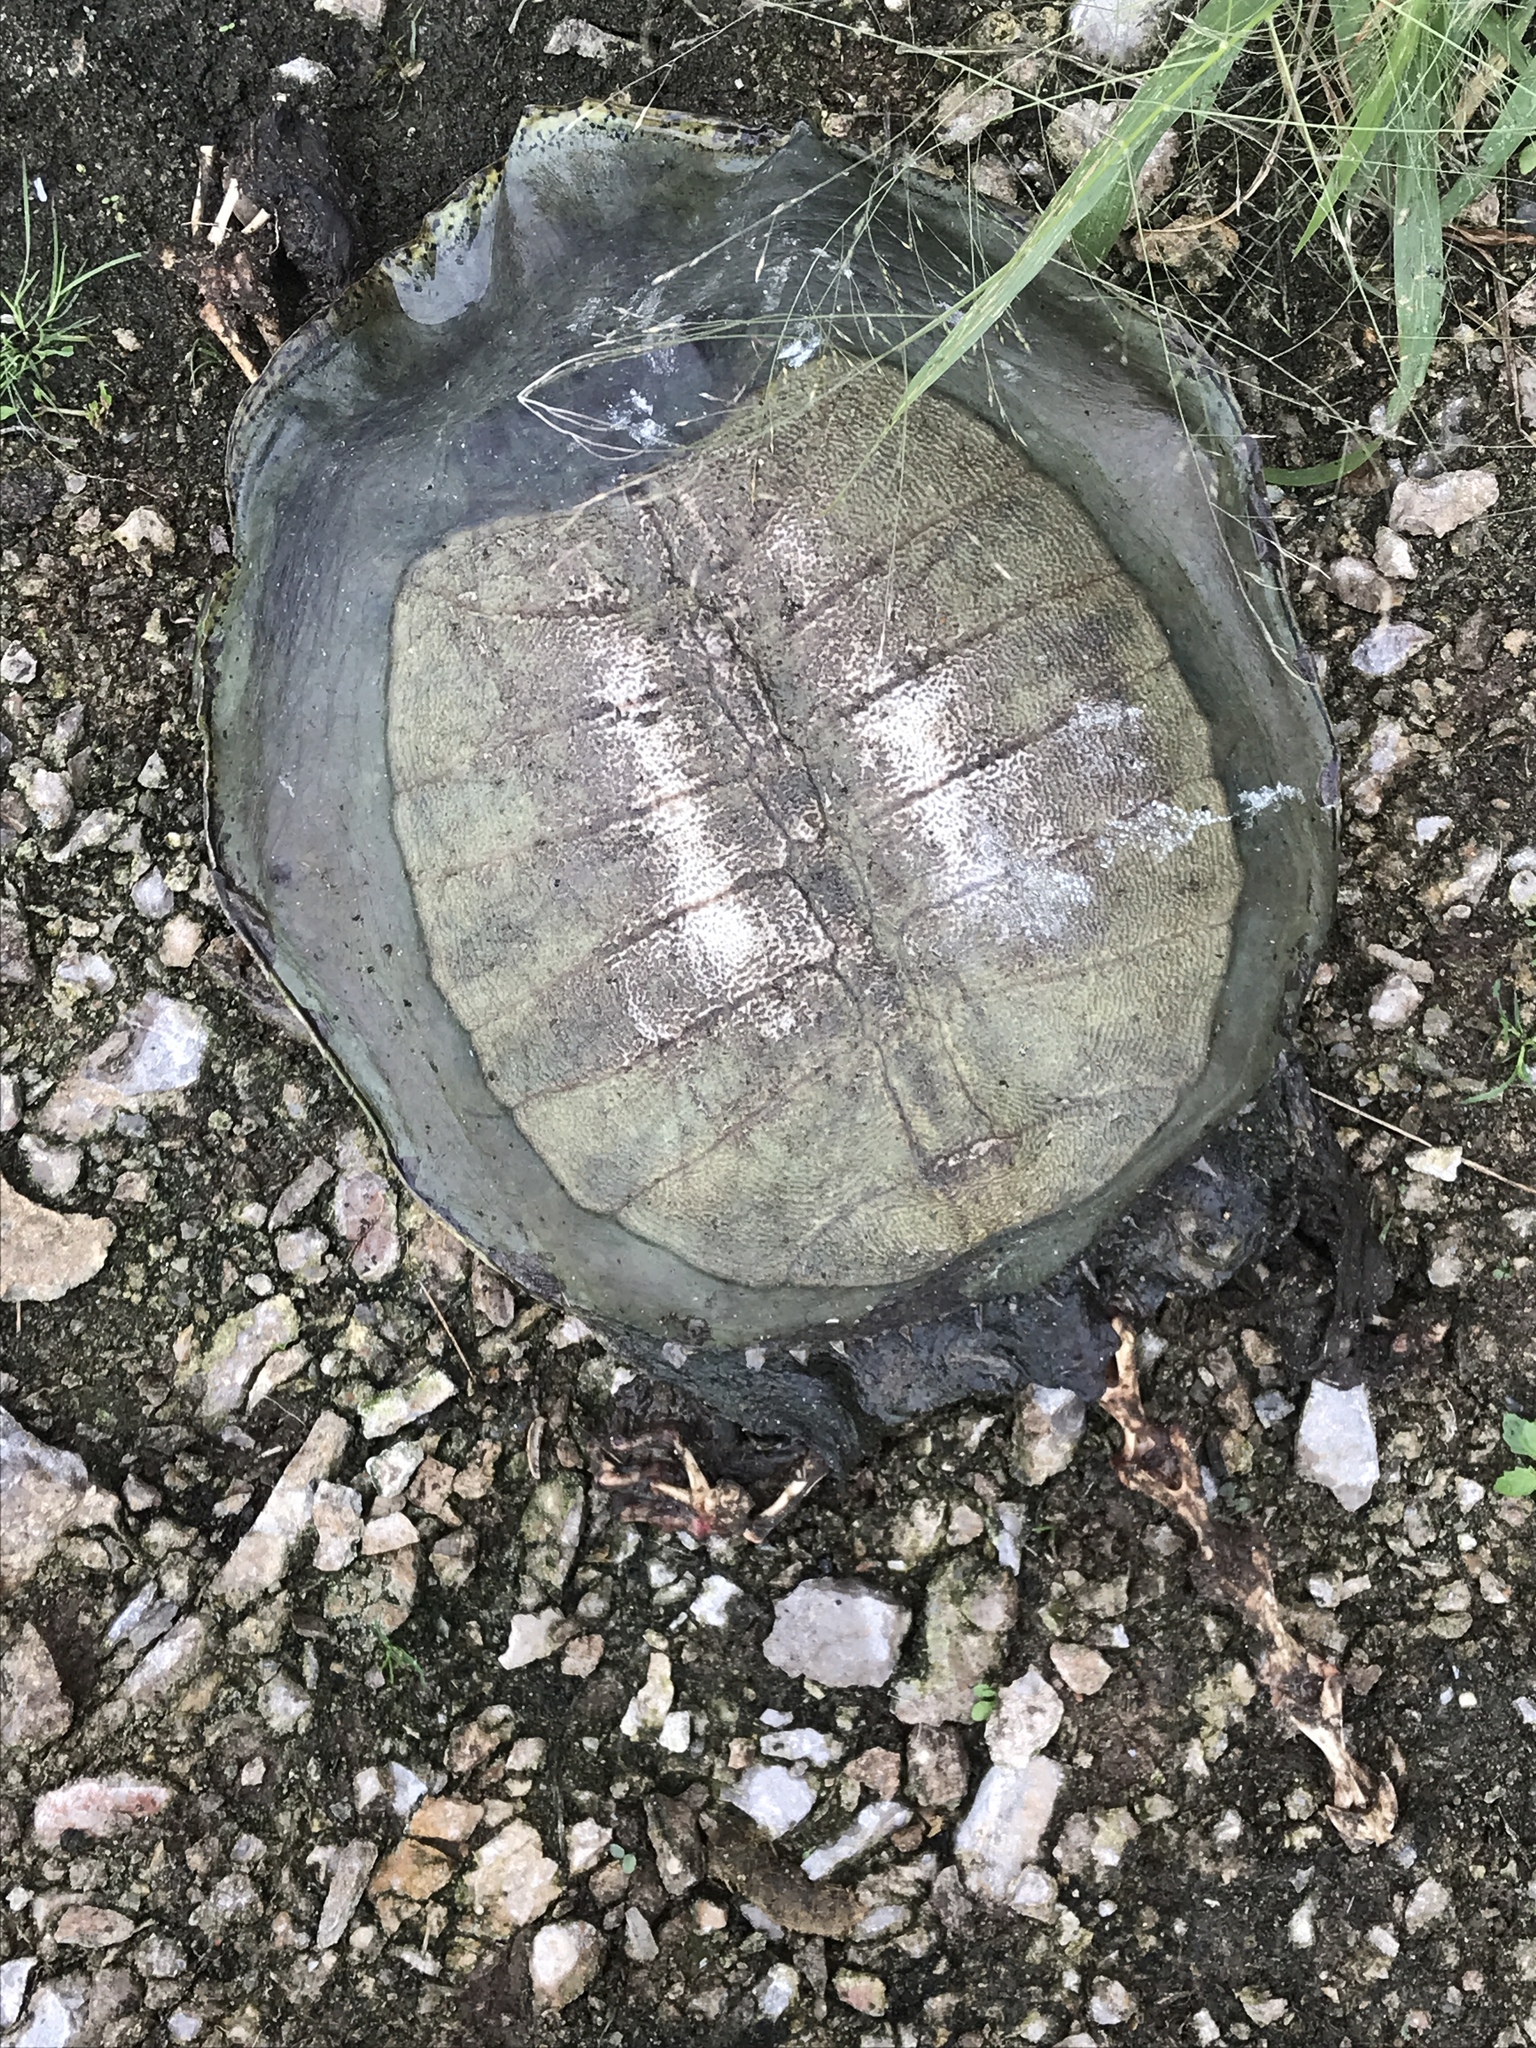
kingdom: Animalia
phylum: Chordata
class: Testudines
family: Trionychidae
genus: Apalone
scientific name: Apalone spinifera
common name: Spiny softshell turtle
